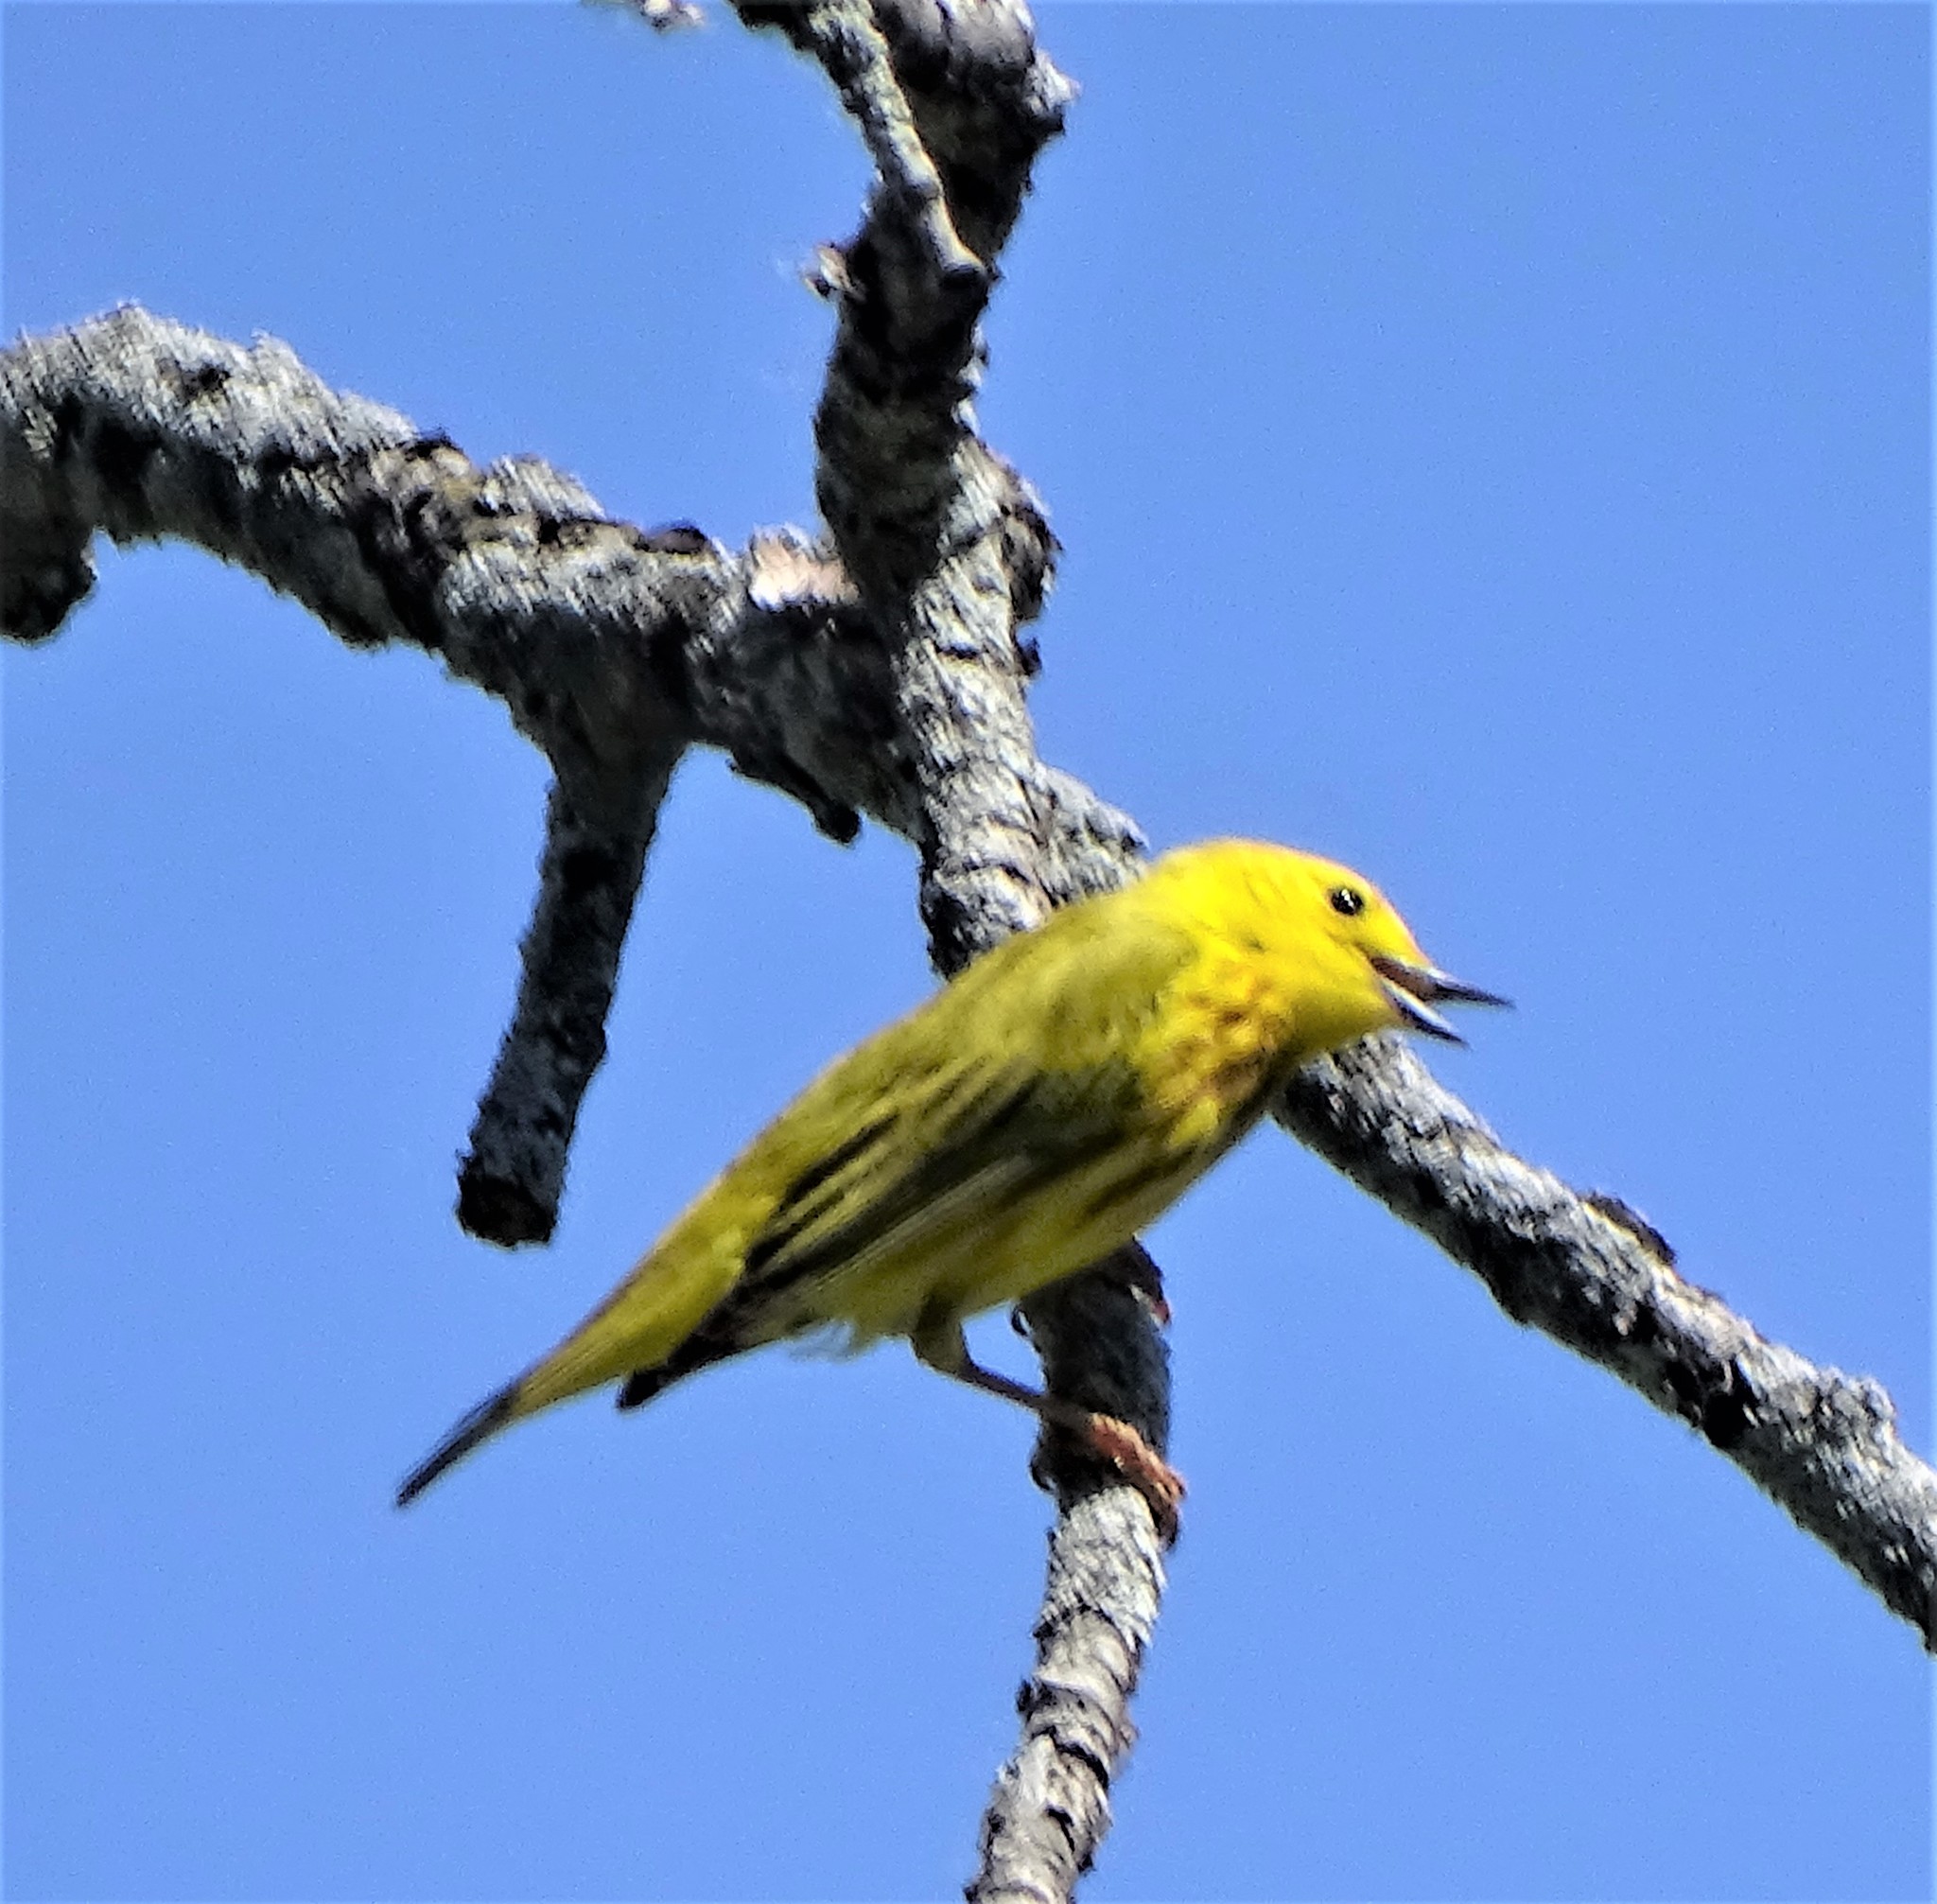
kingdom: Animalia
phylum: Chordata
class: Aves
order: Passeriformes
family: Parulidae
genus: Setophaga
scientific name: Setophaga petechia
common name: Yellow warbler
